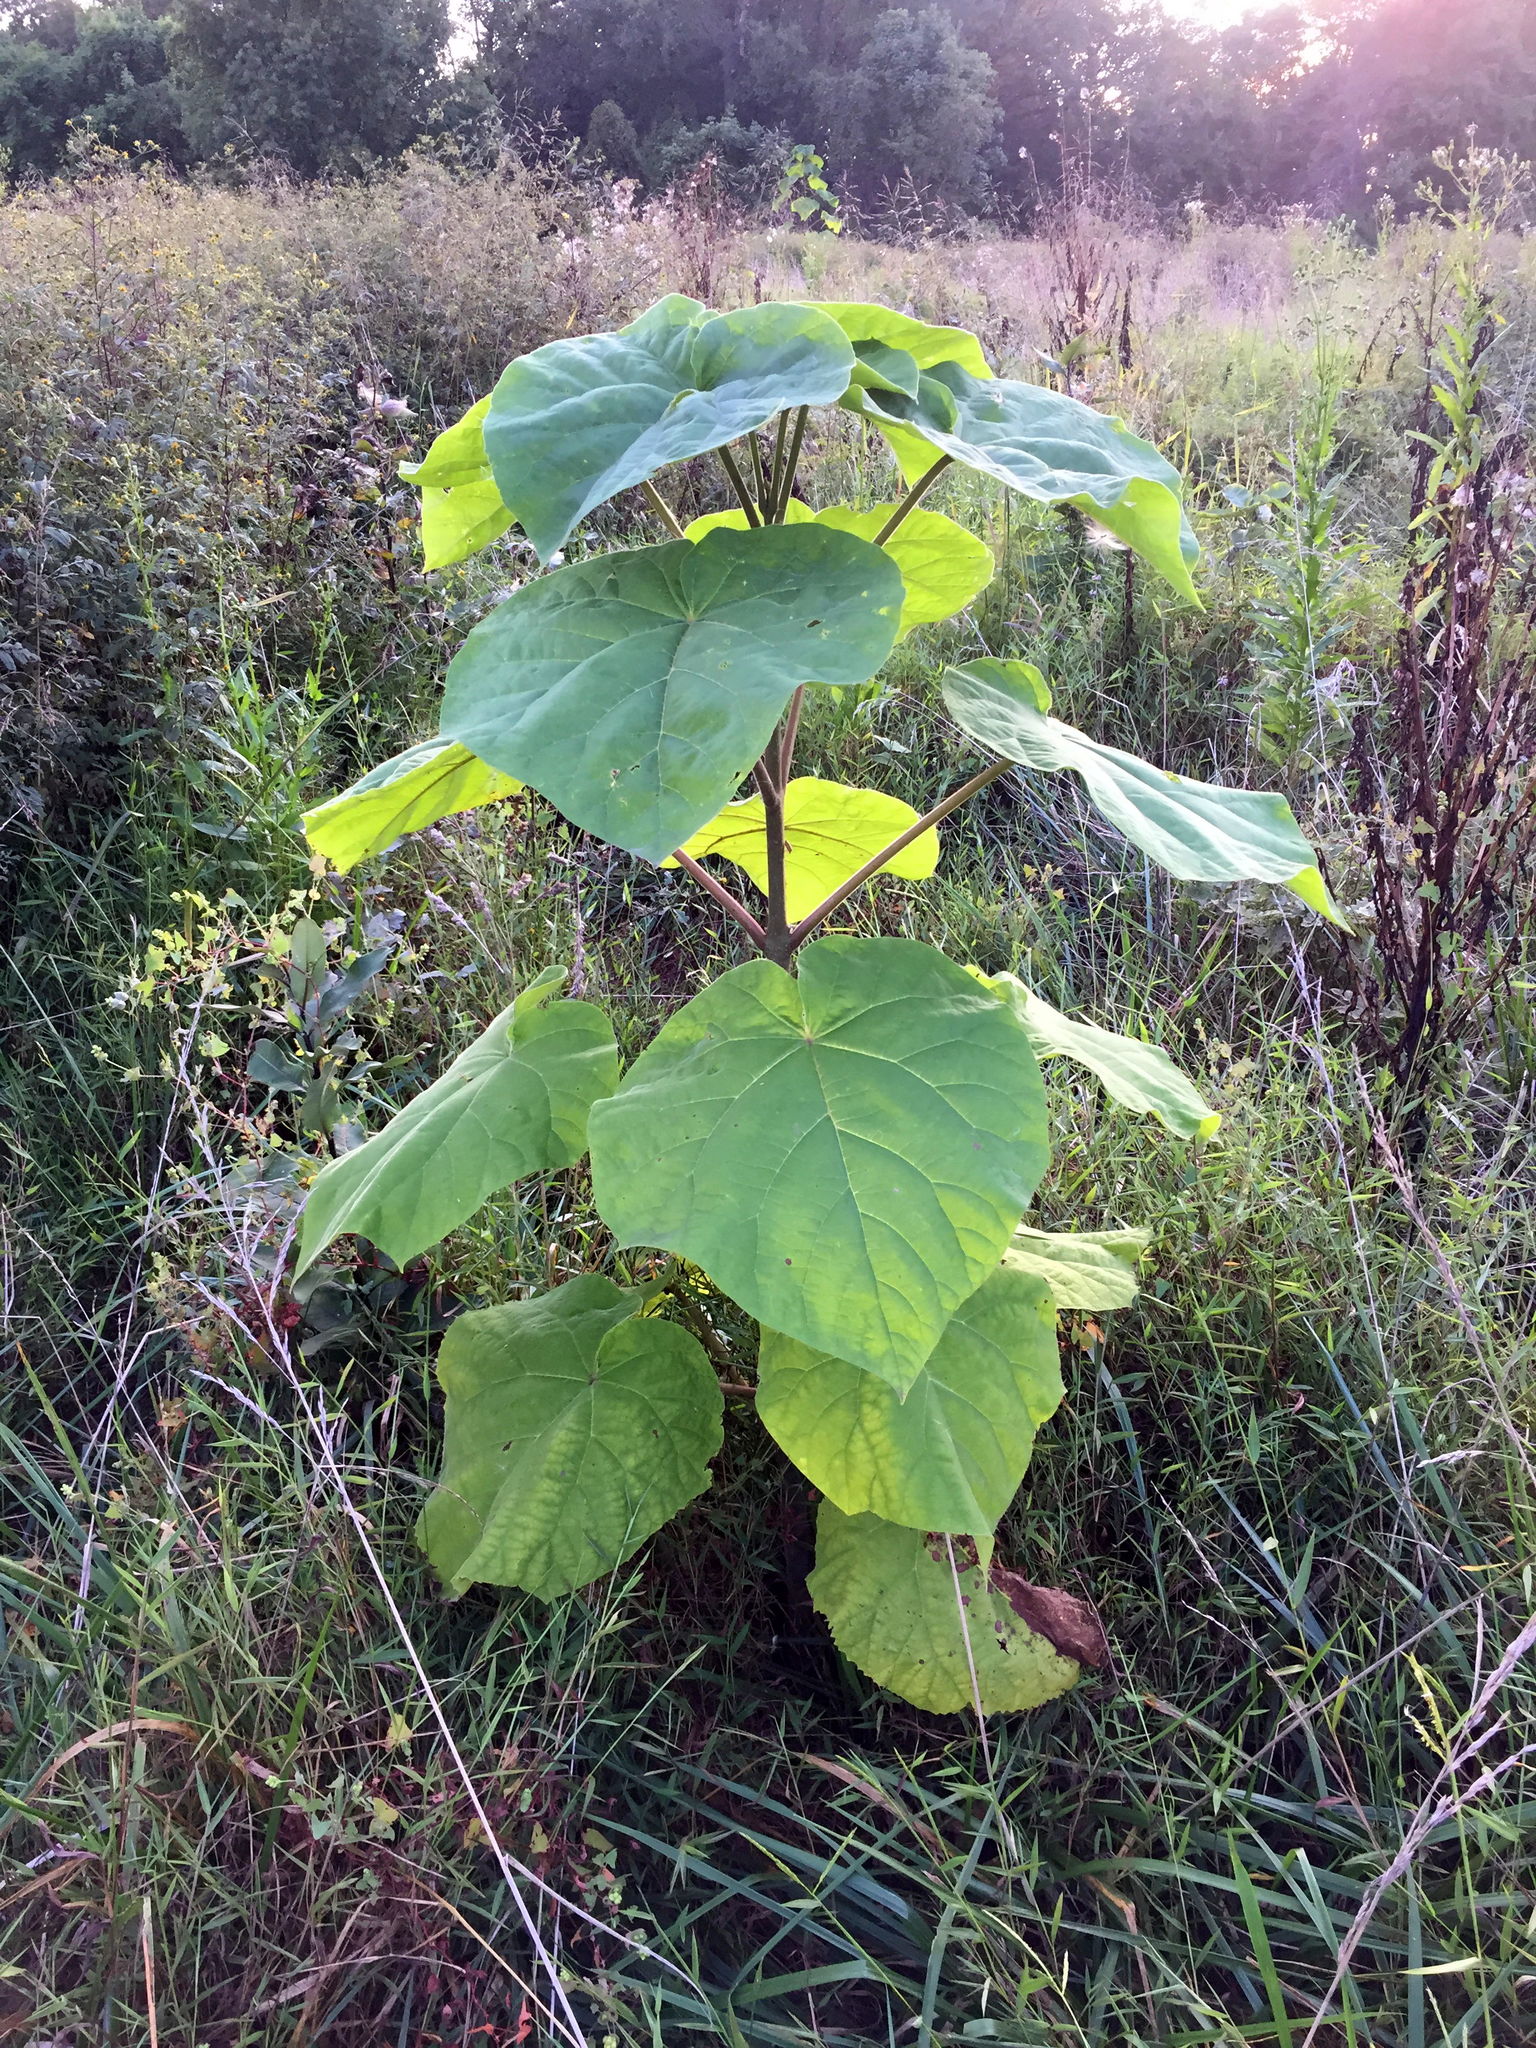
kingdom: Plantae
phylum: Tracheophyta
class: Magnoliopsida
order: Lamiales
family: Paulowniaceae
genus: Paulownia
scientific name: Paulownia tomentosa
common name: Foxglove-tree
